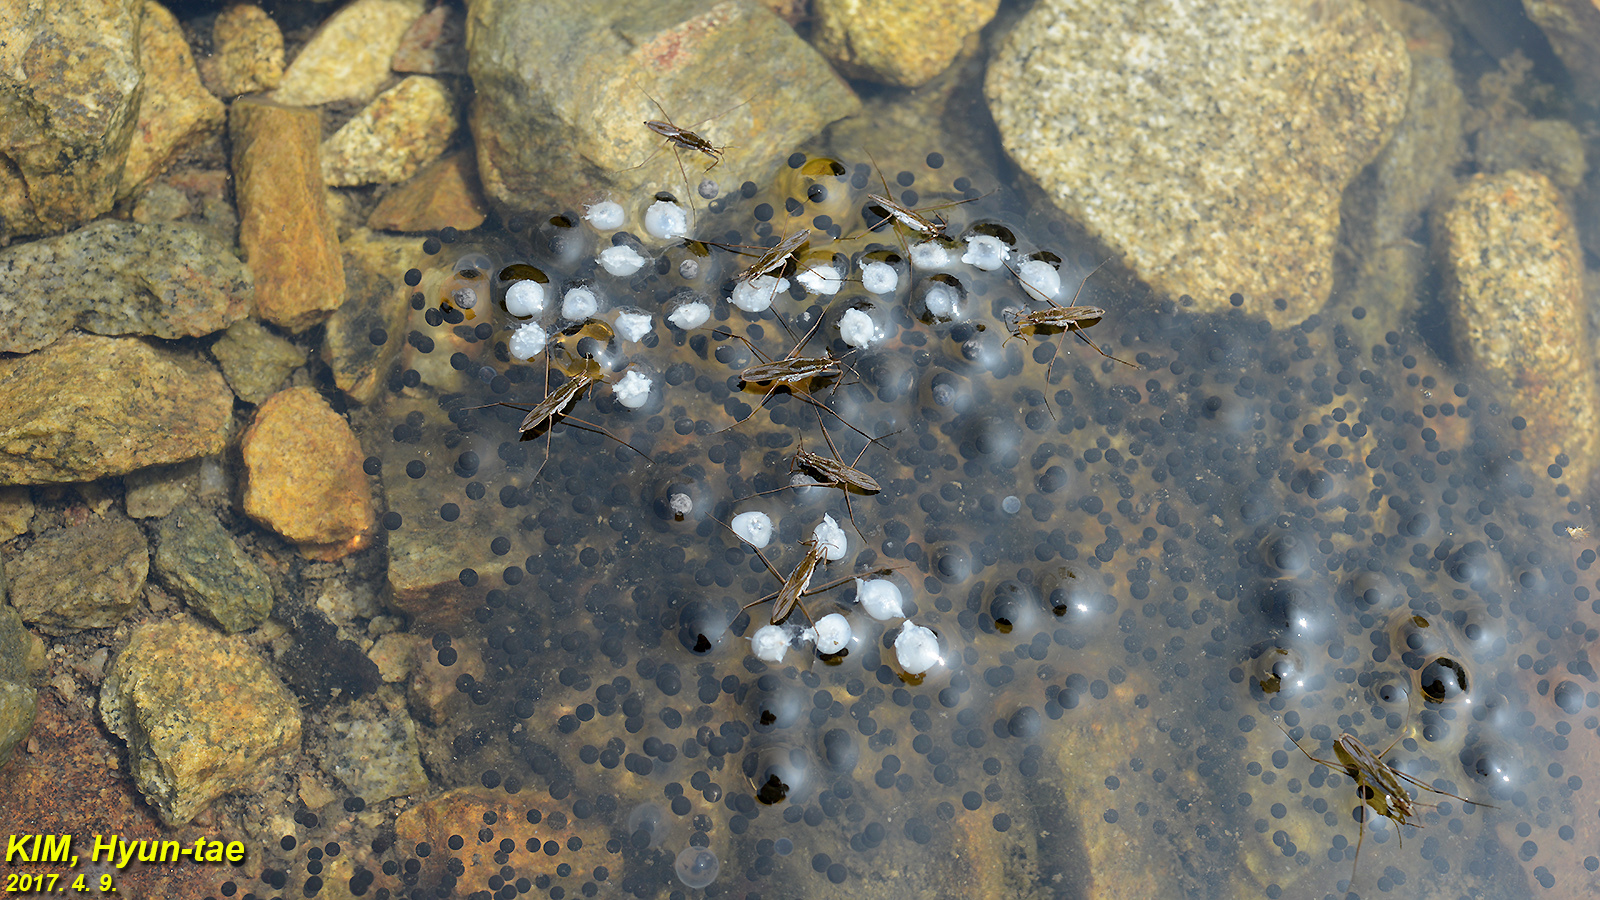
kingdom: Animalia
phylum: Chordata
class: Amphibia
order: Anura
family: Ranidae
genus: Rana
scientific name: Rana huanrenensis
